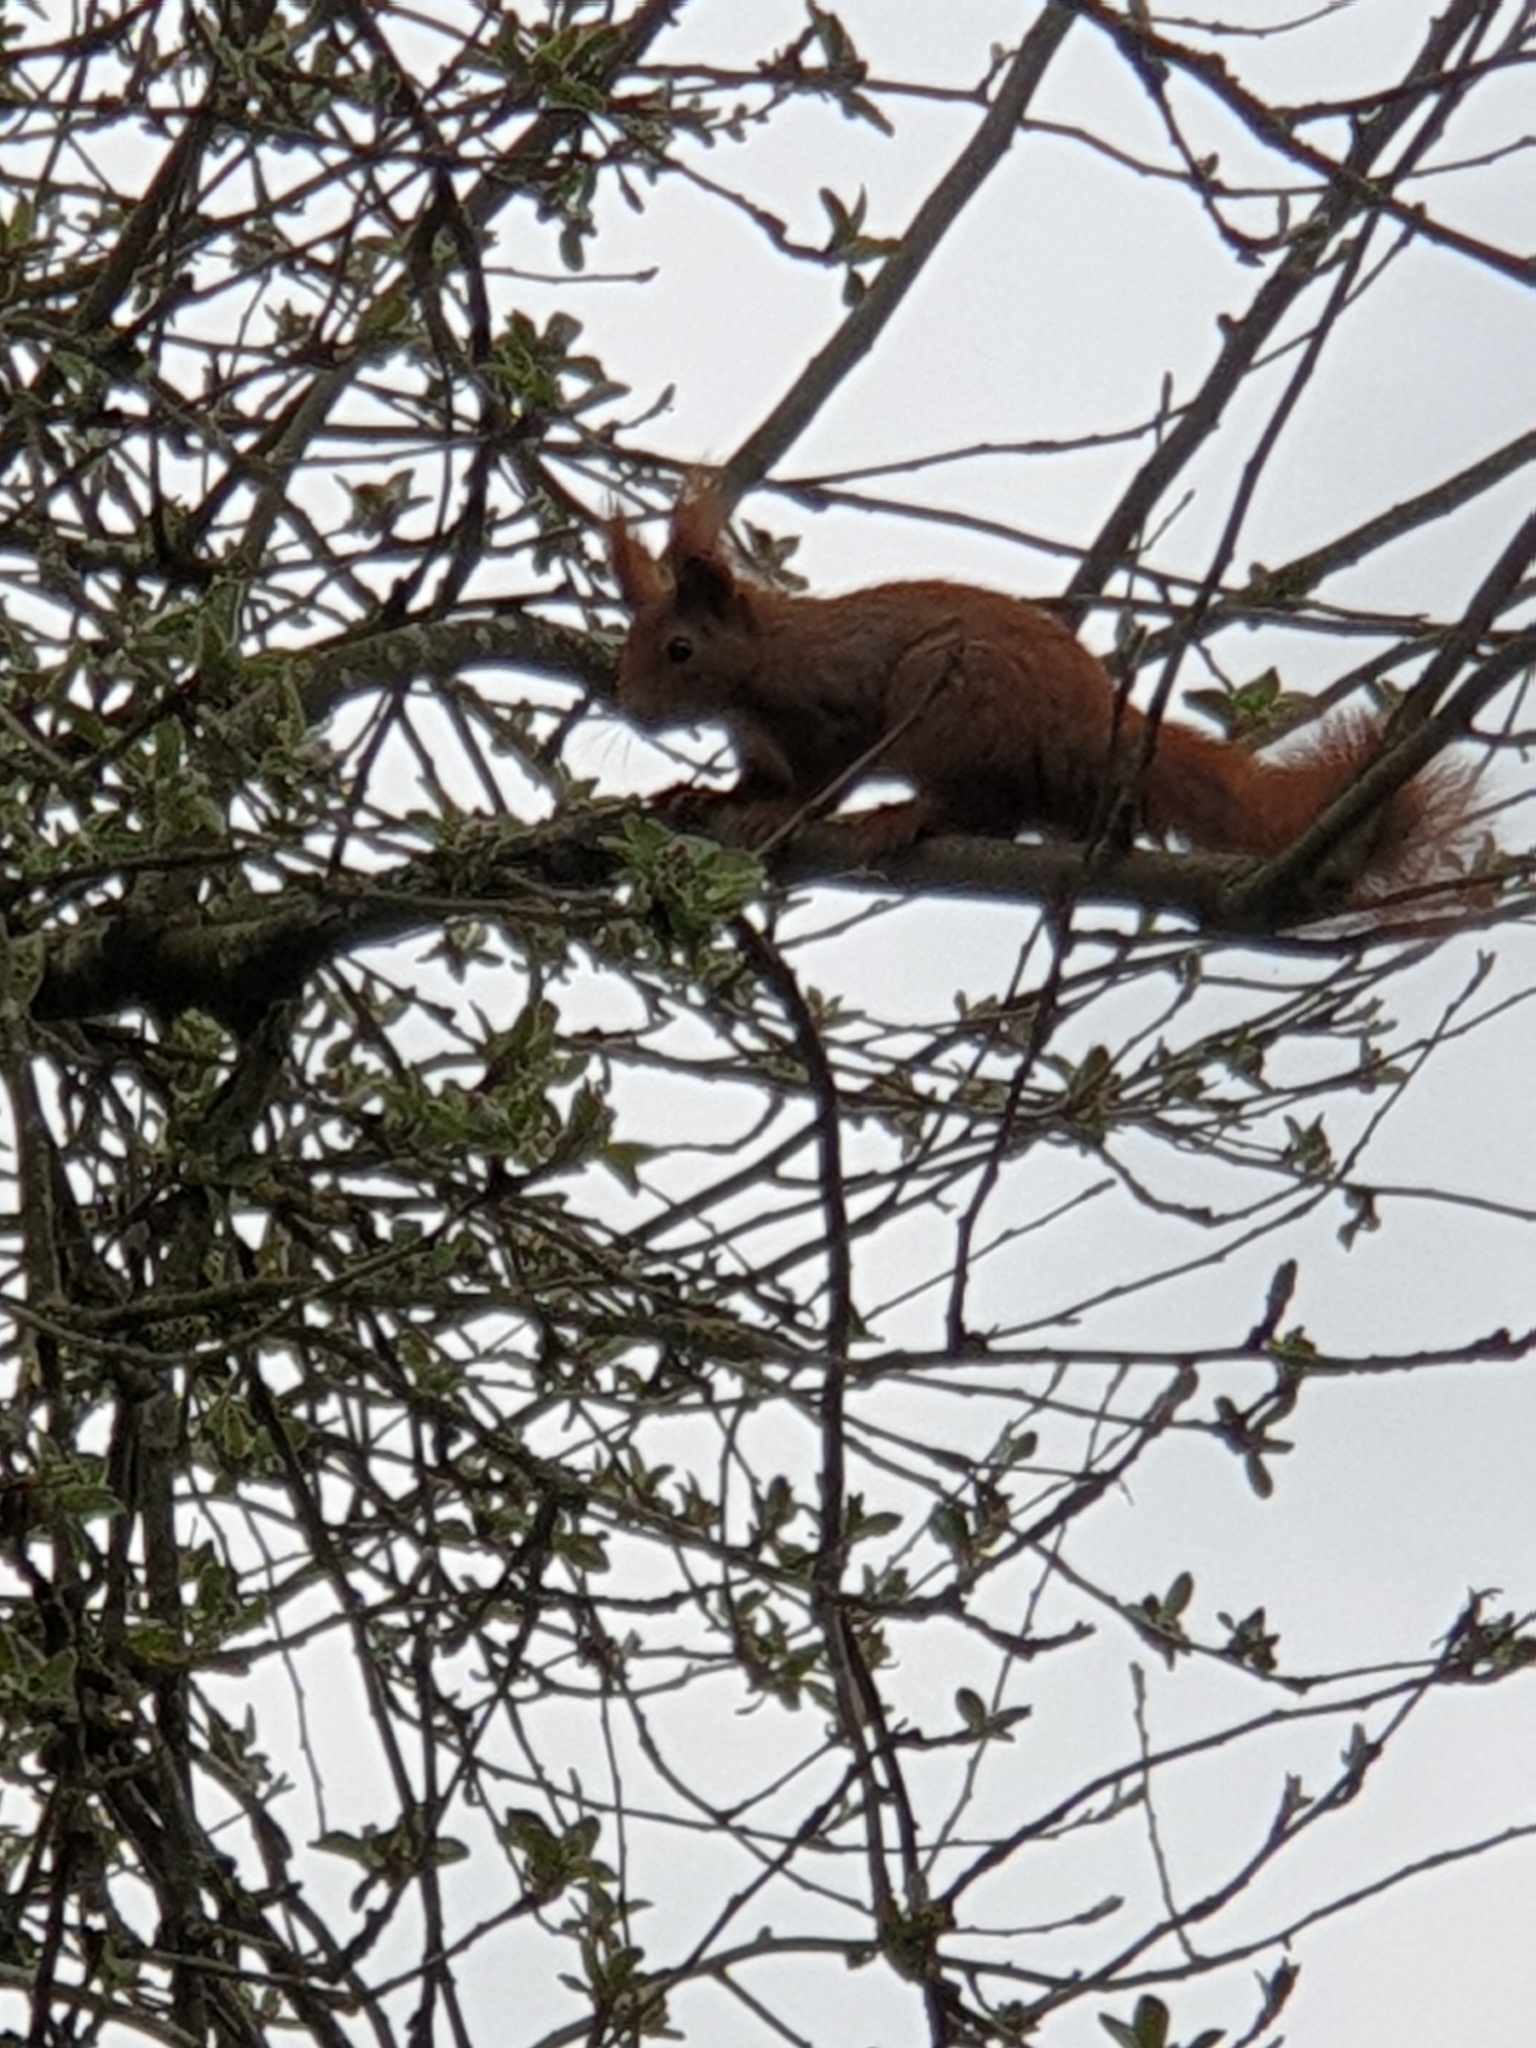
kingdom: Animalia
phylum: Chordata
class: Mammalia
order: Rodentia
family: Sciuridae
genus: Sciurus
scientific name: Sciurus vulgaris
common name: Eurasian red squirrel
